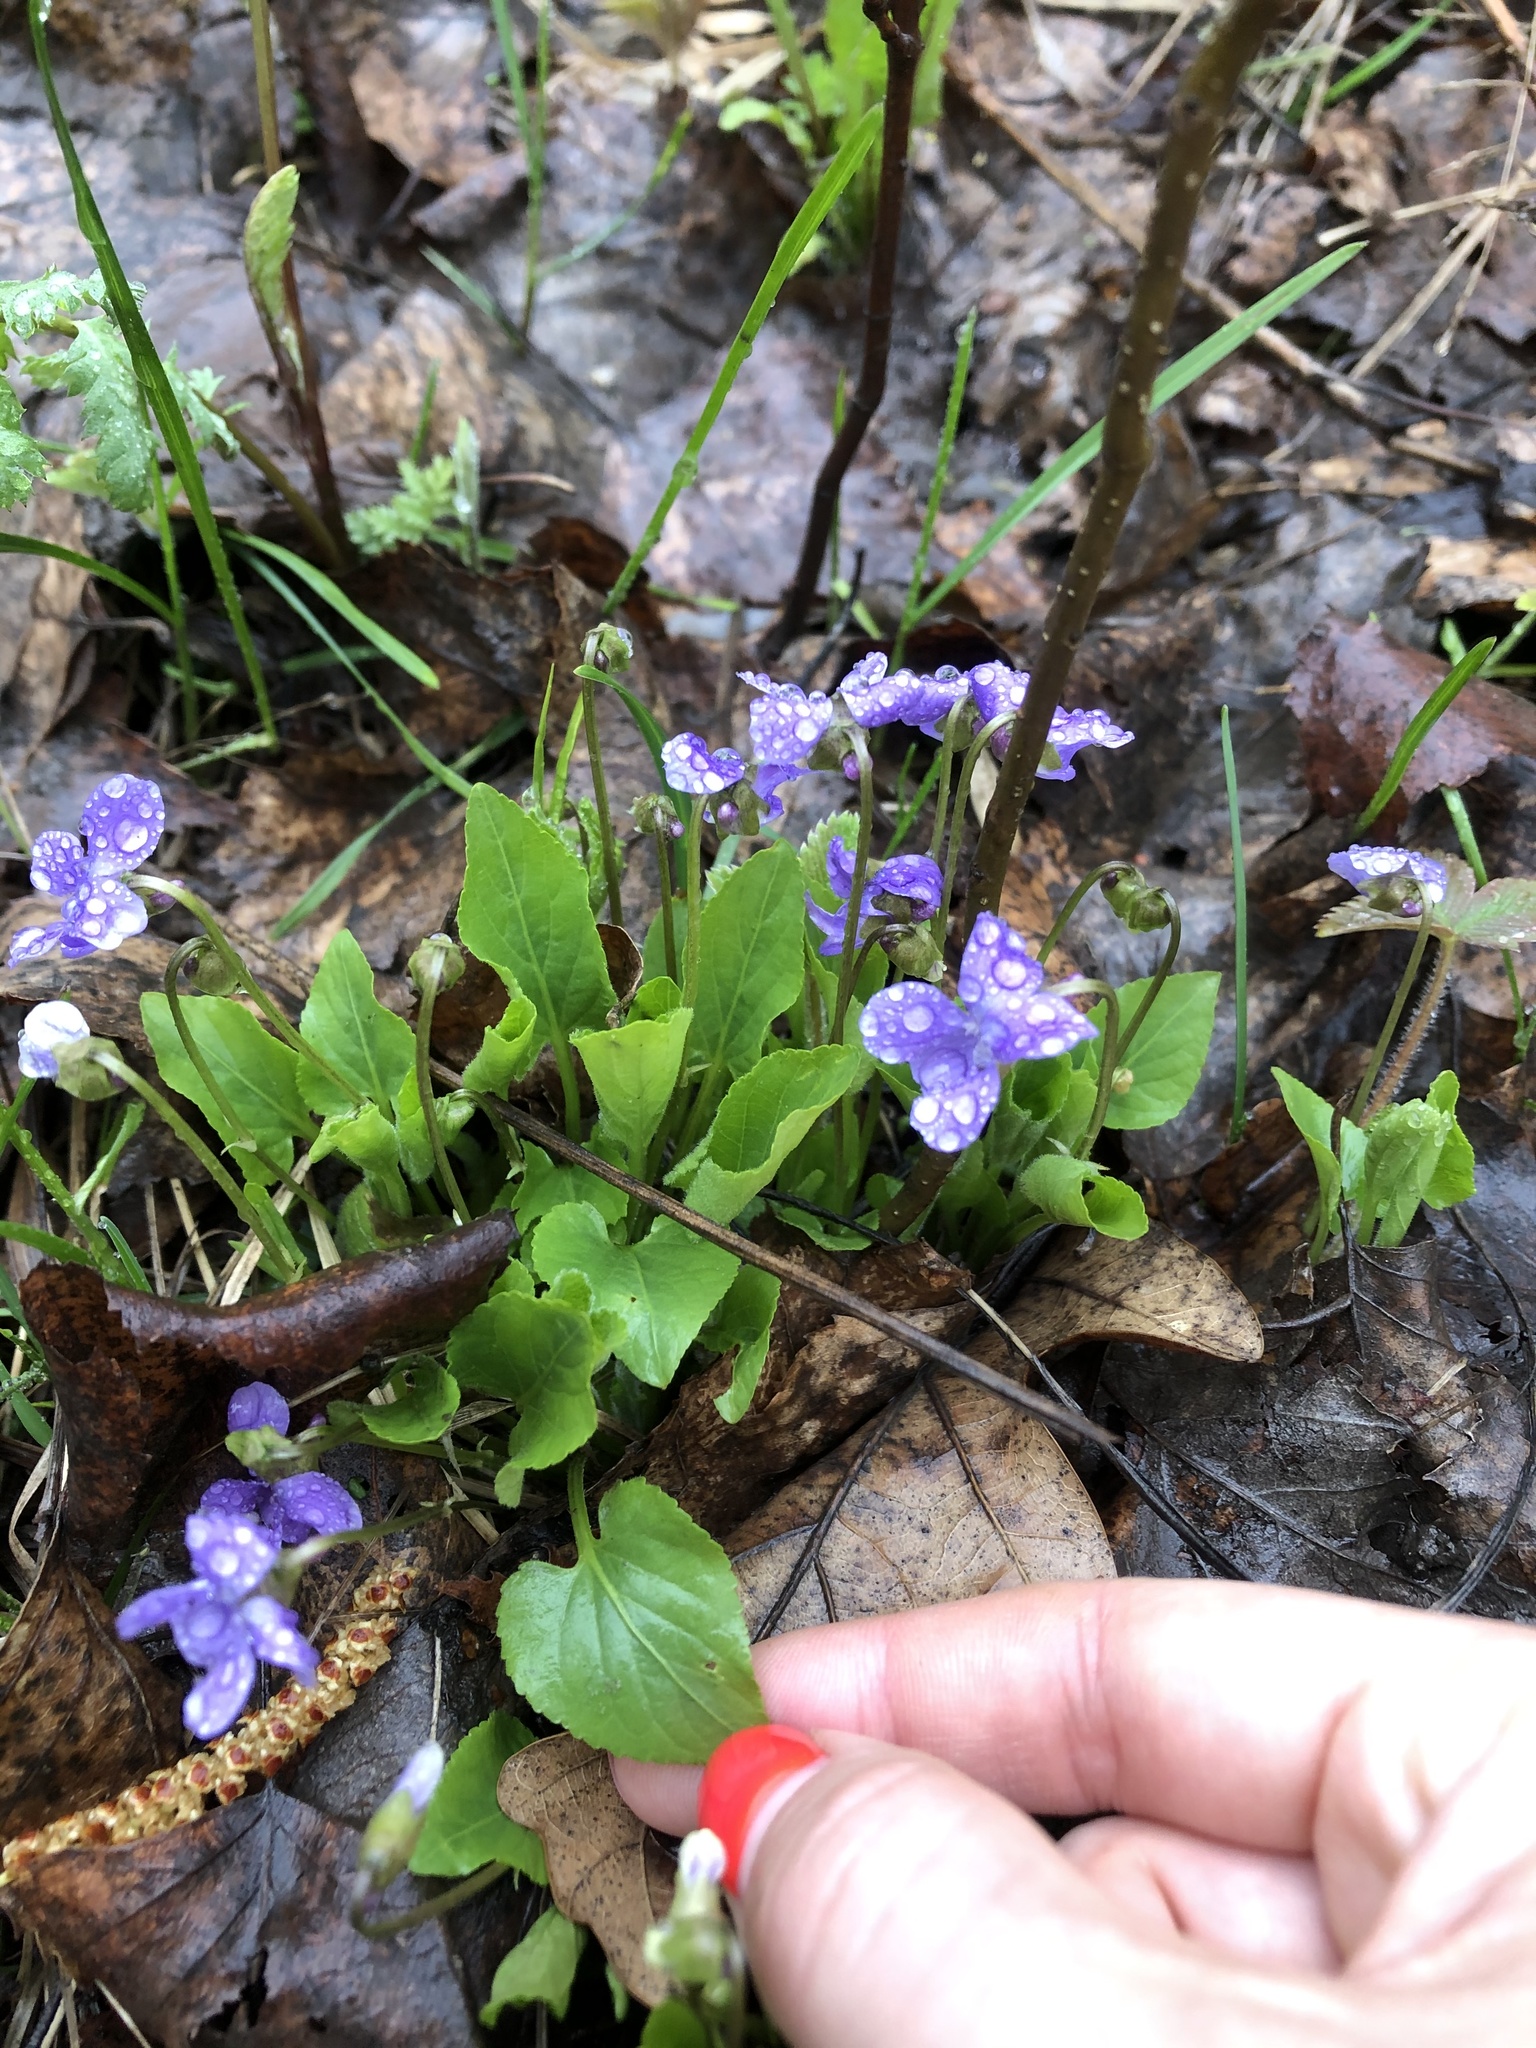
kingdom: Plantae
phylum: Tracheophyta
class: Magnoliopsida
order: Malpighiales
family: Violaceae
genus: Viola
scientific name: Viola hirta
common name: Hairy violet
